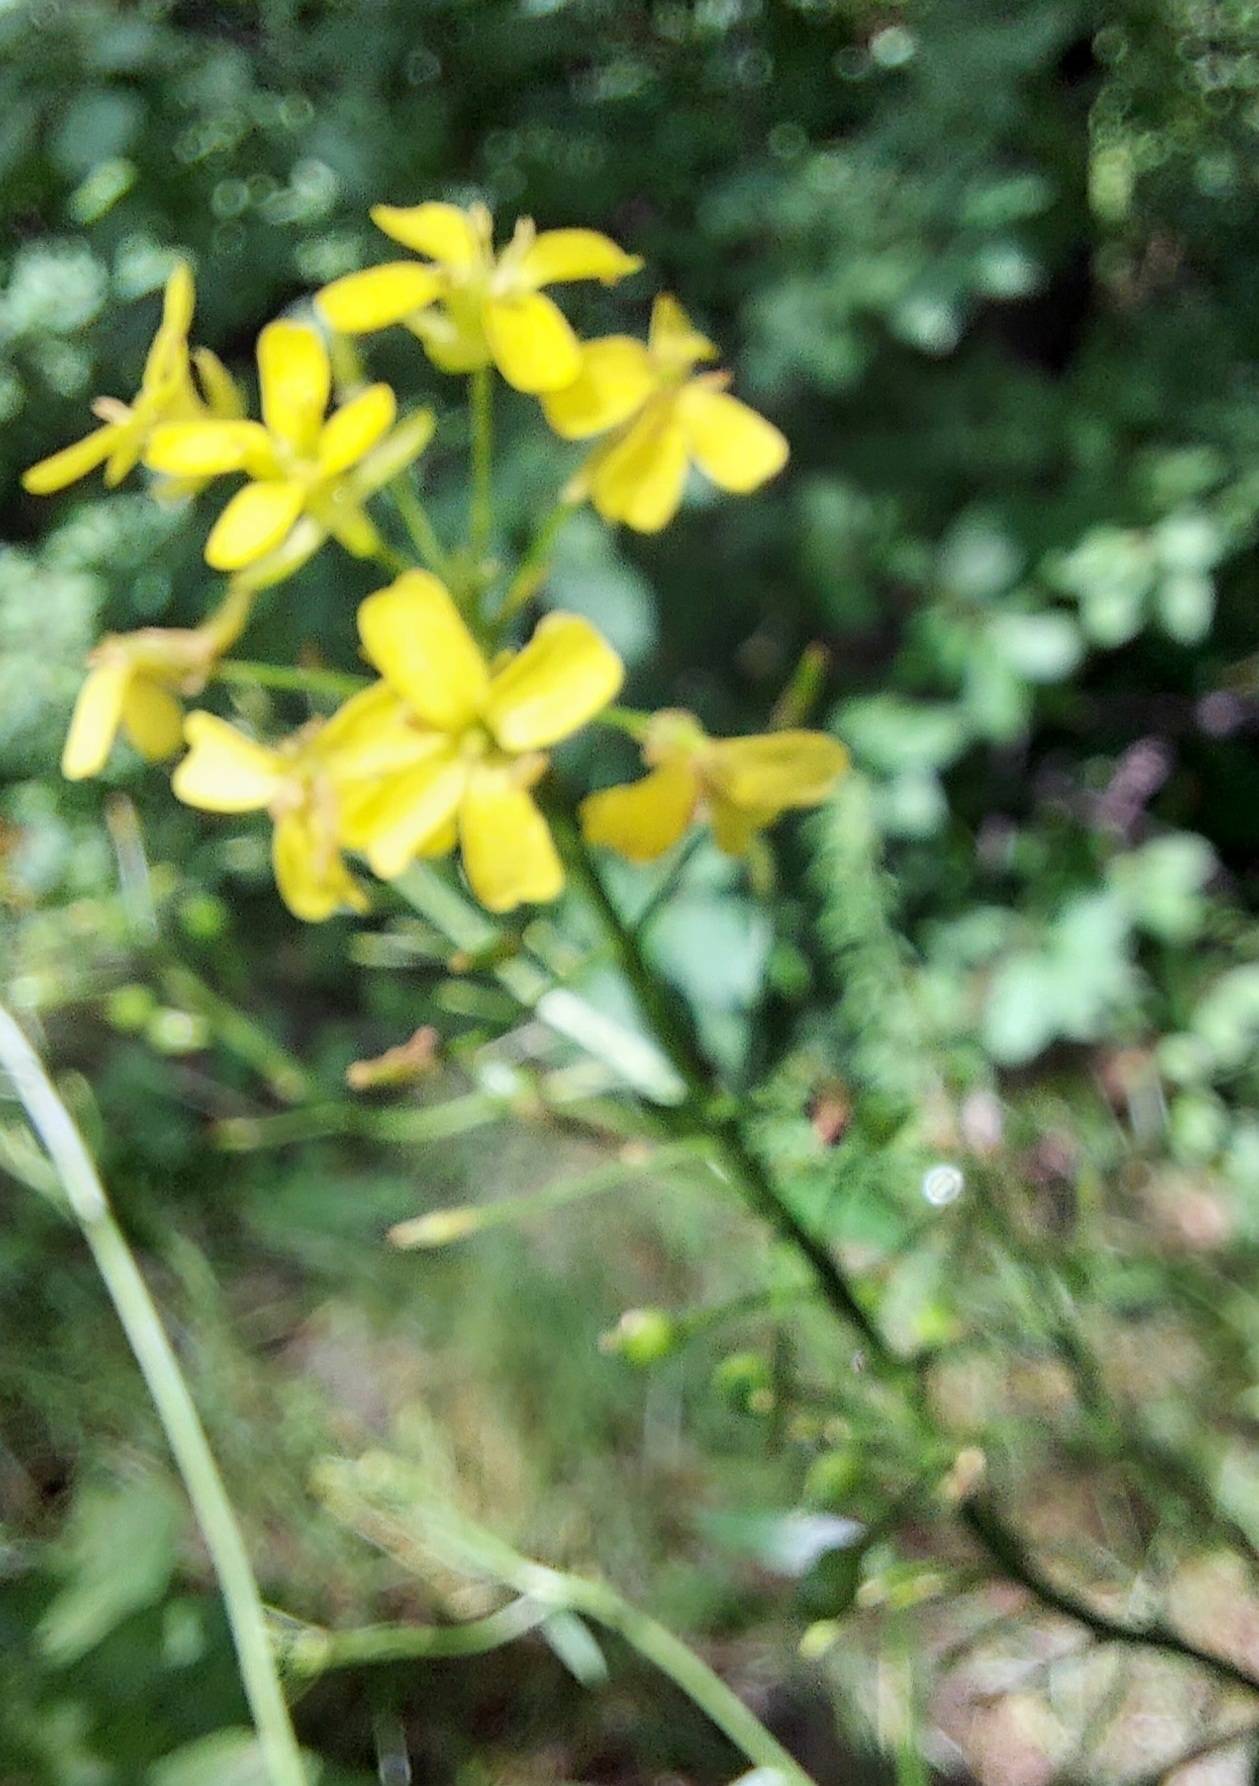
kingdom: Plantae
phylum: Tracheophyta
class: Magnoliopsida
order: Brassicales
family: Brassicaceae
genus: Bunias
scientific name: Bunias orientalis
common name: Warty-cabbage
